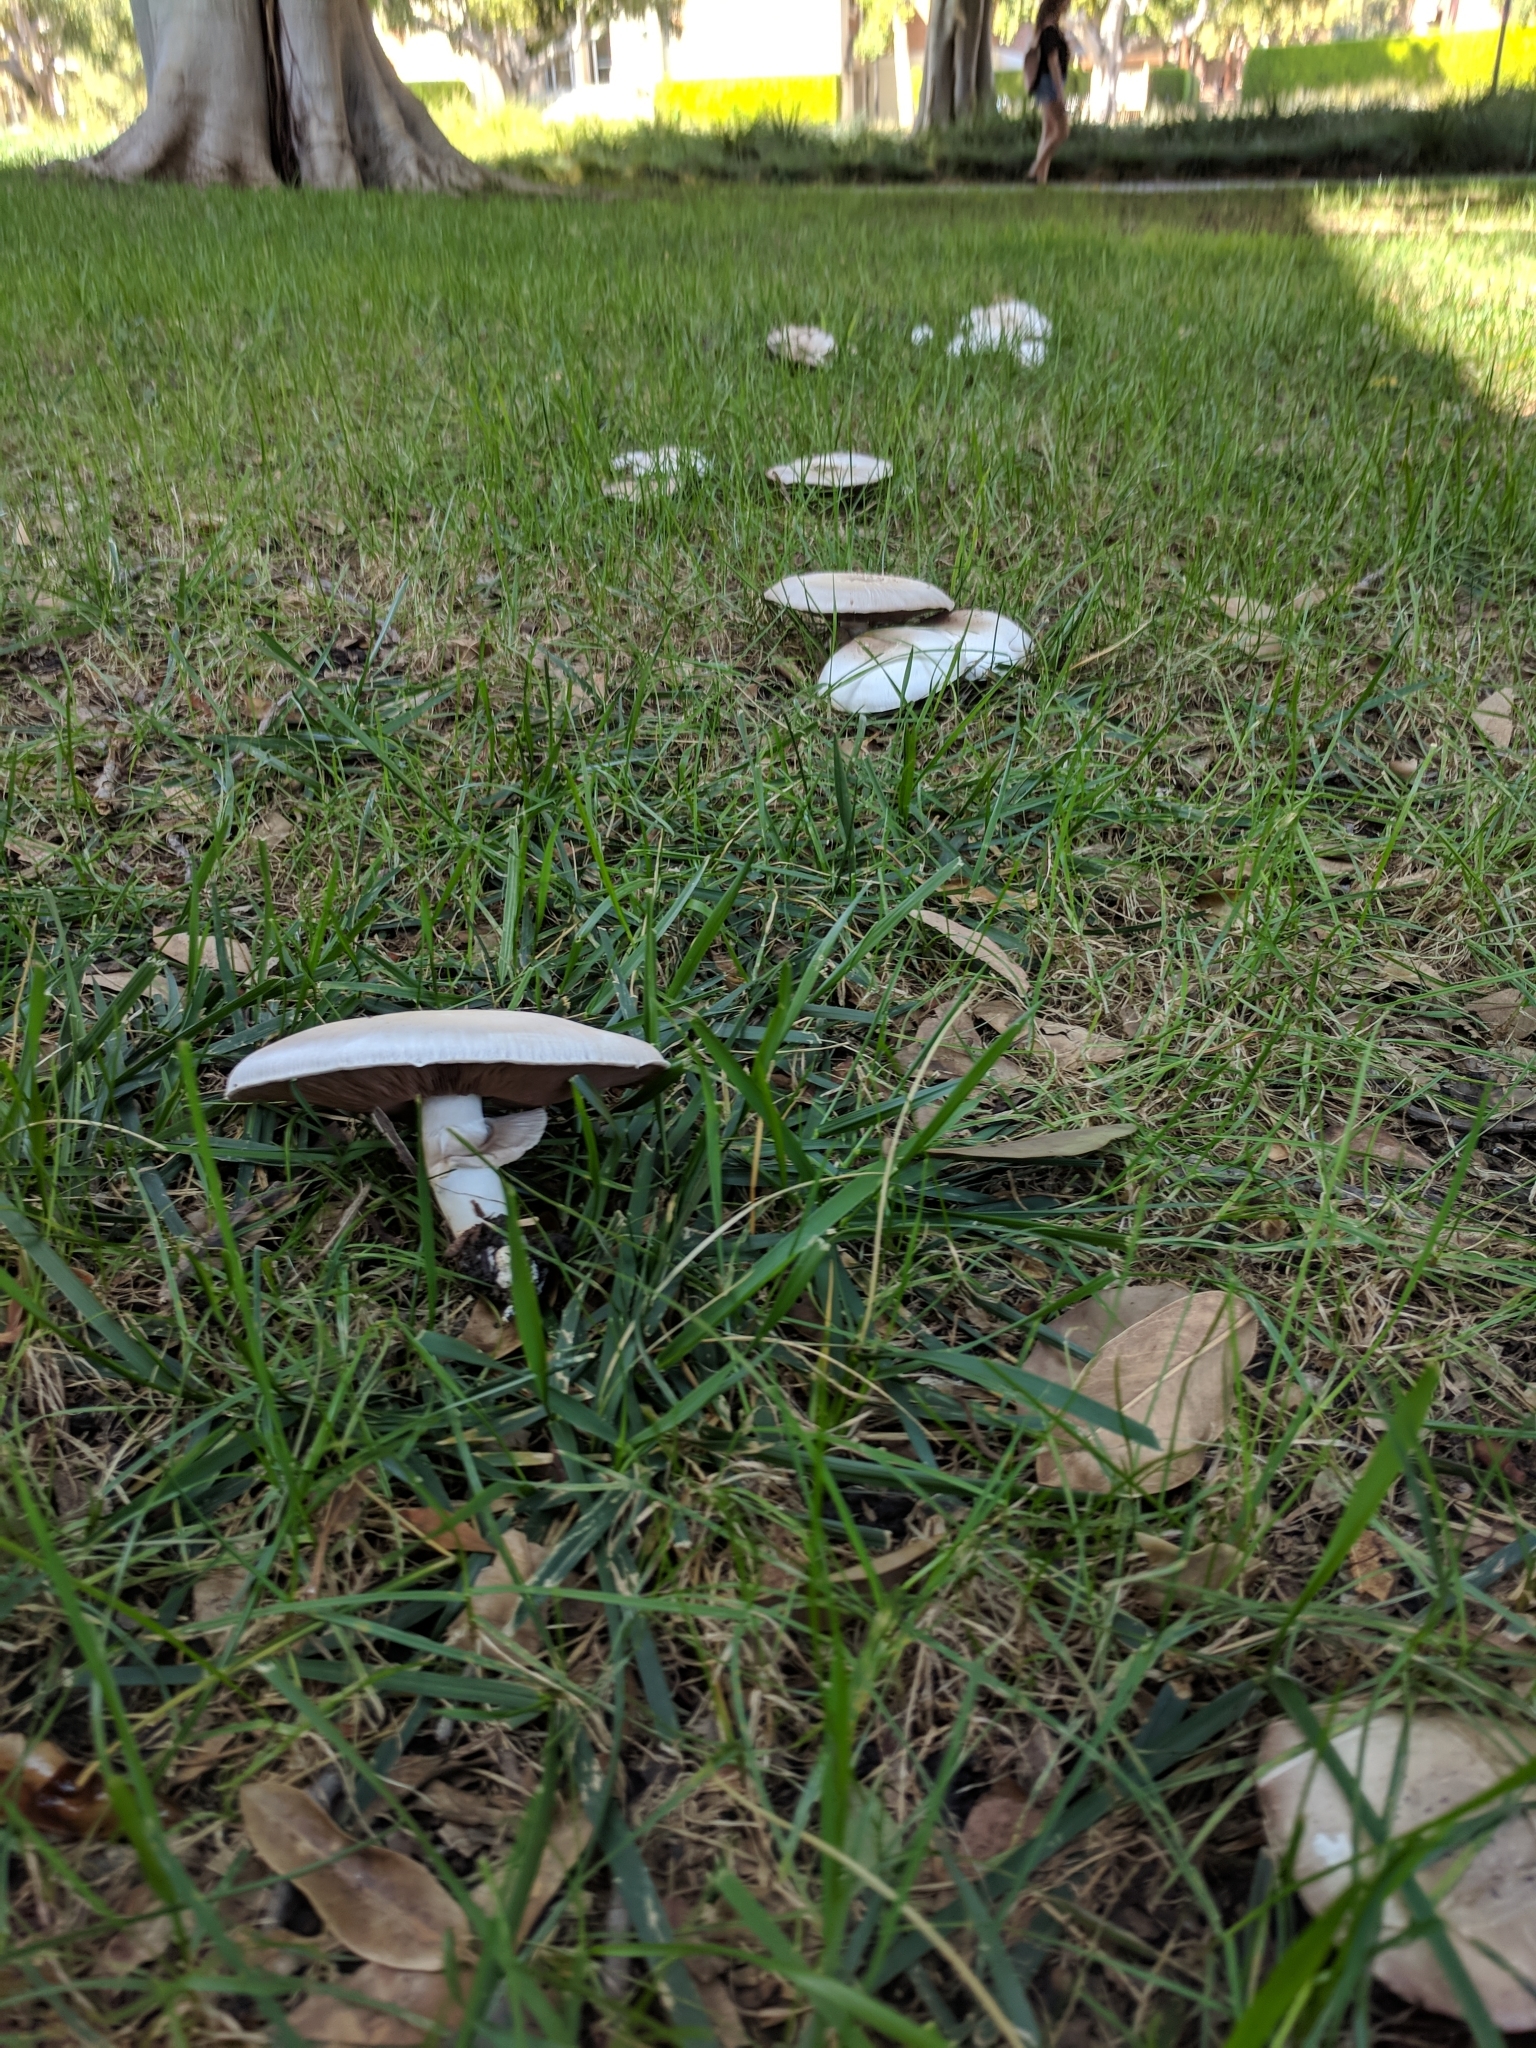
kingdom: Fungi
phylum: Basidiomycota
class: Agaricomycetes
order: Agaricales
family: Agaricaceae
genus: Agaricus
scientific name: Agaricus xanthodermus
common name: Yellow stainer
